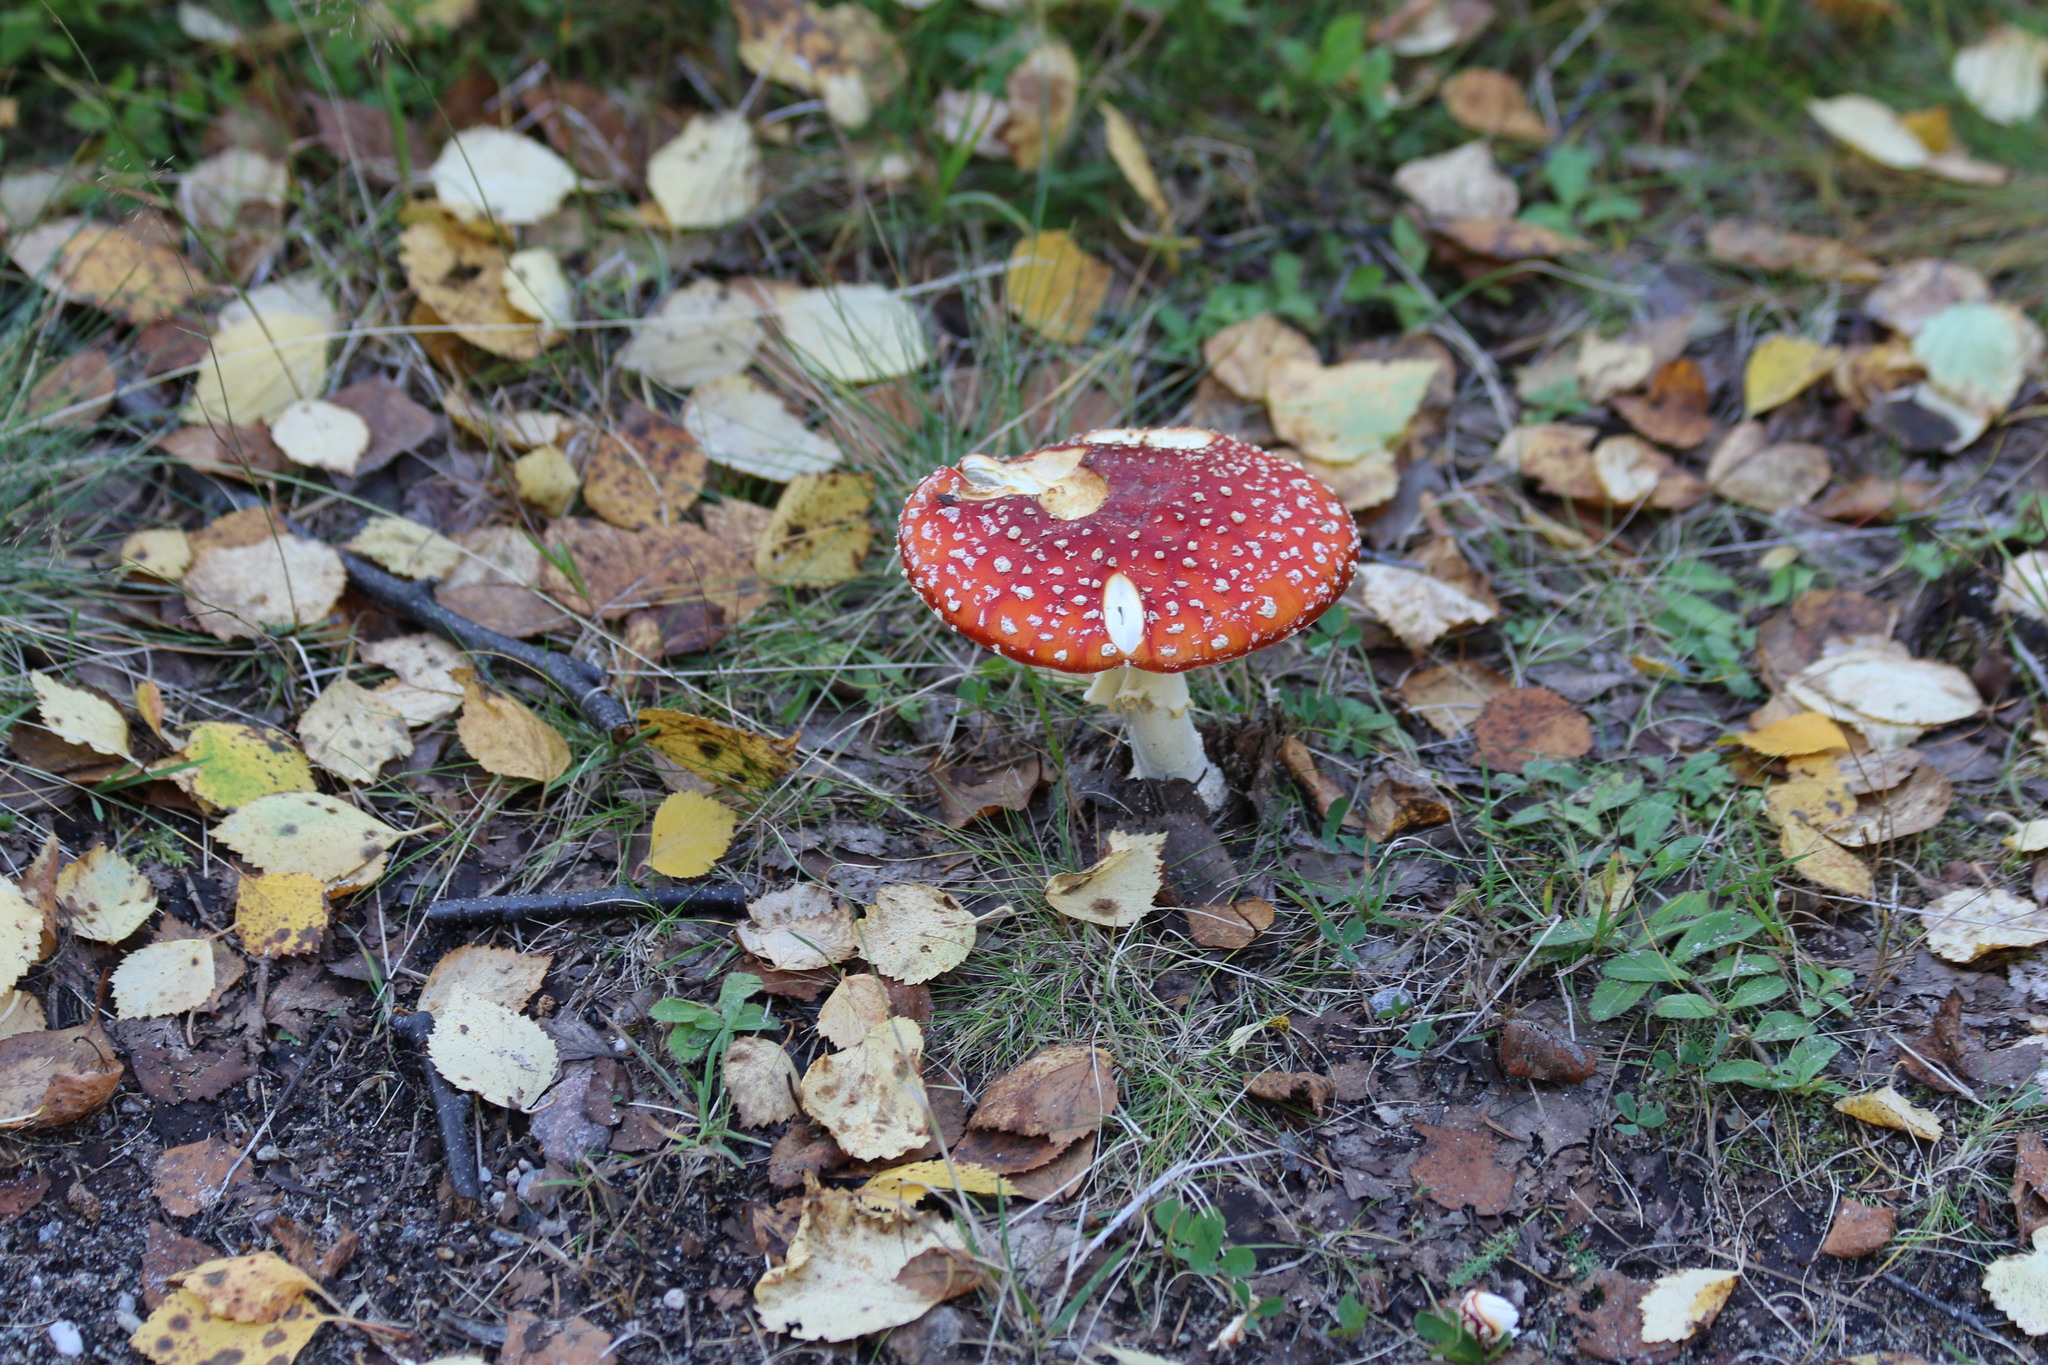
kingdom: Fungi
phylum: Basidiomycota
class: Agaricomycetes
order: Agaricales
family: Amanitaceae
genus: Amanita
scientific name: Amanita muscaria
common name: Fly agaric
